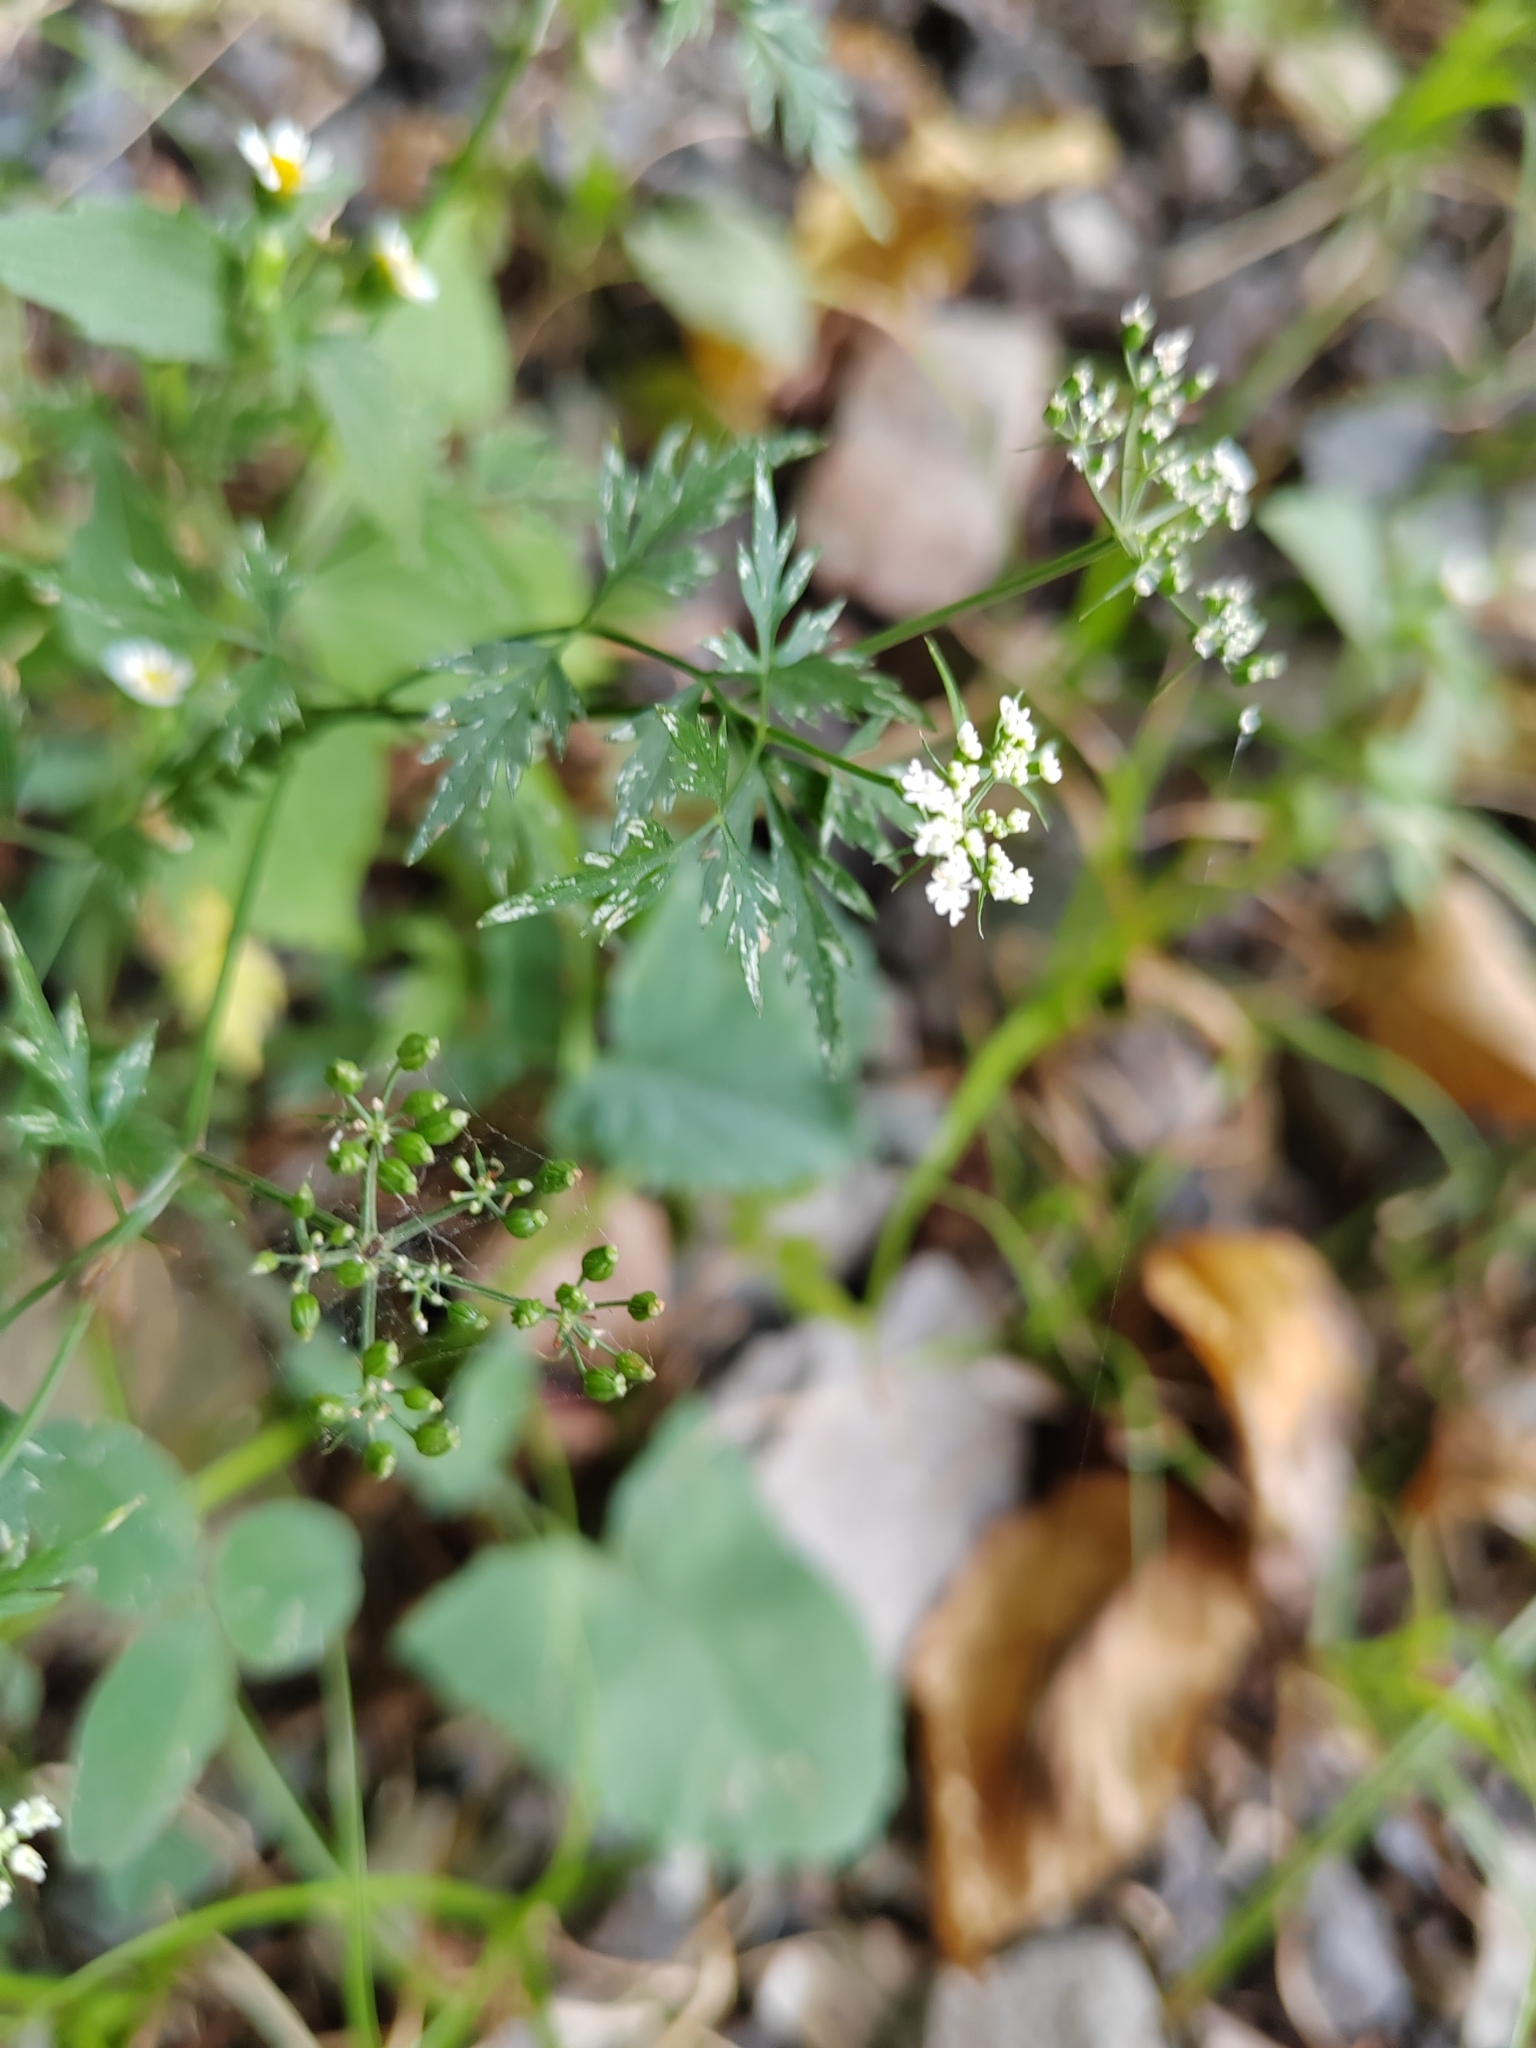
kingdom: Plantae
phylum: Tracheophyta
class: Magnoliopsida
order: Apiales
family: Apiaceae
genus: Aethusa
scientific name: Aethusa cynapium
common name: Fool's parsley
